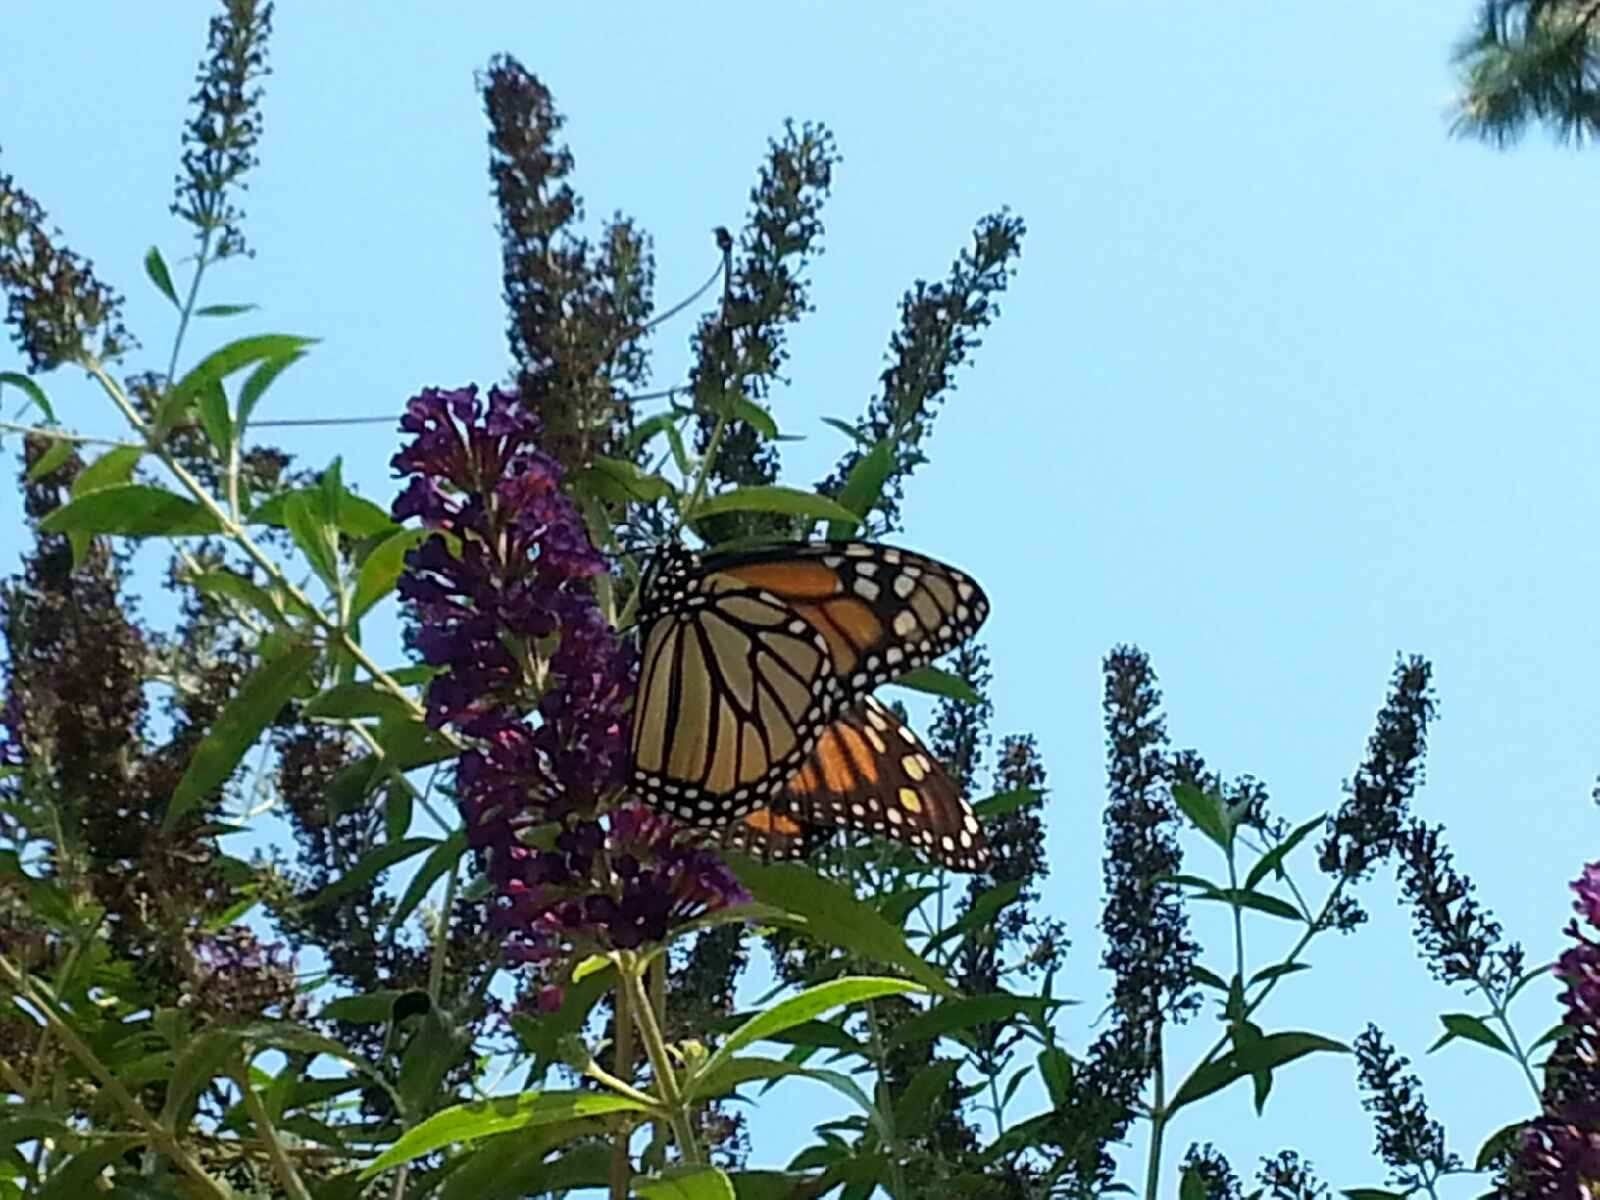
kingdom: Animalia
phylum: Arthropoda
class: Insecta
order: Lepidoptera
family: Nymphalidae
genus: Danaus
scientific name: Danaus plexippus
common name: Monarch
